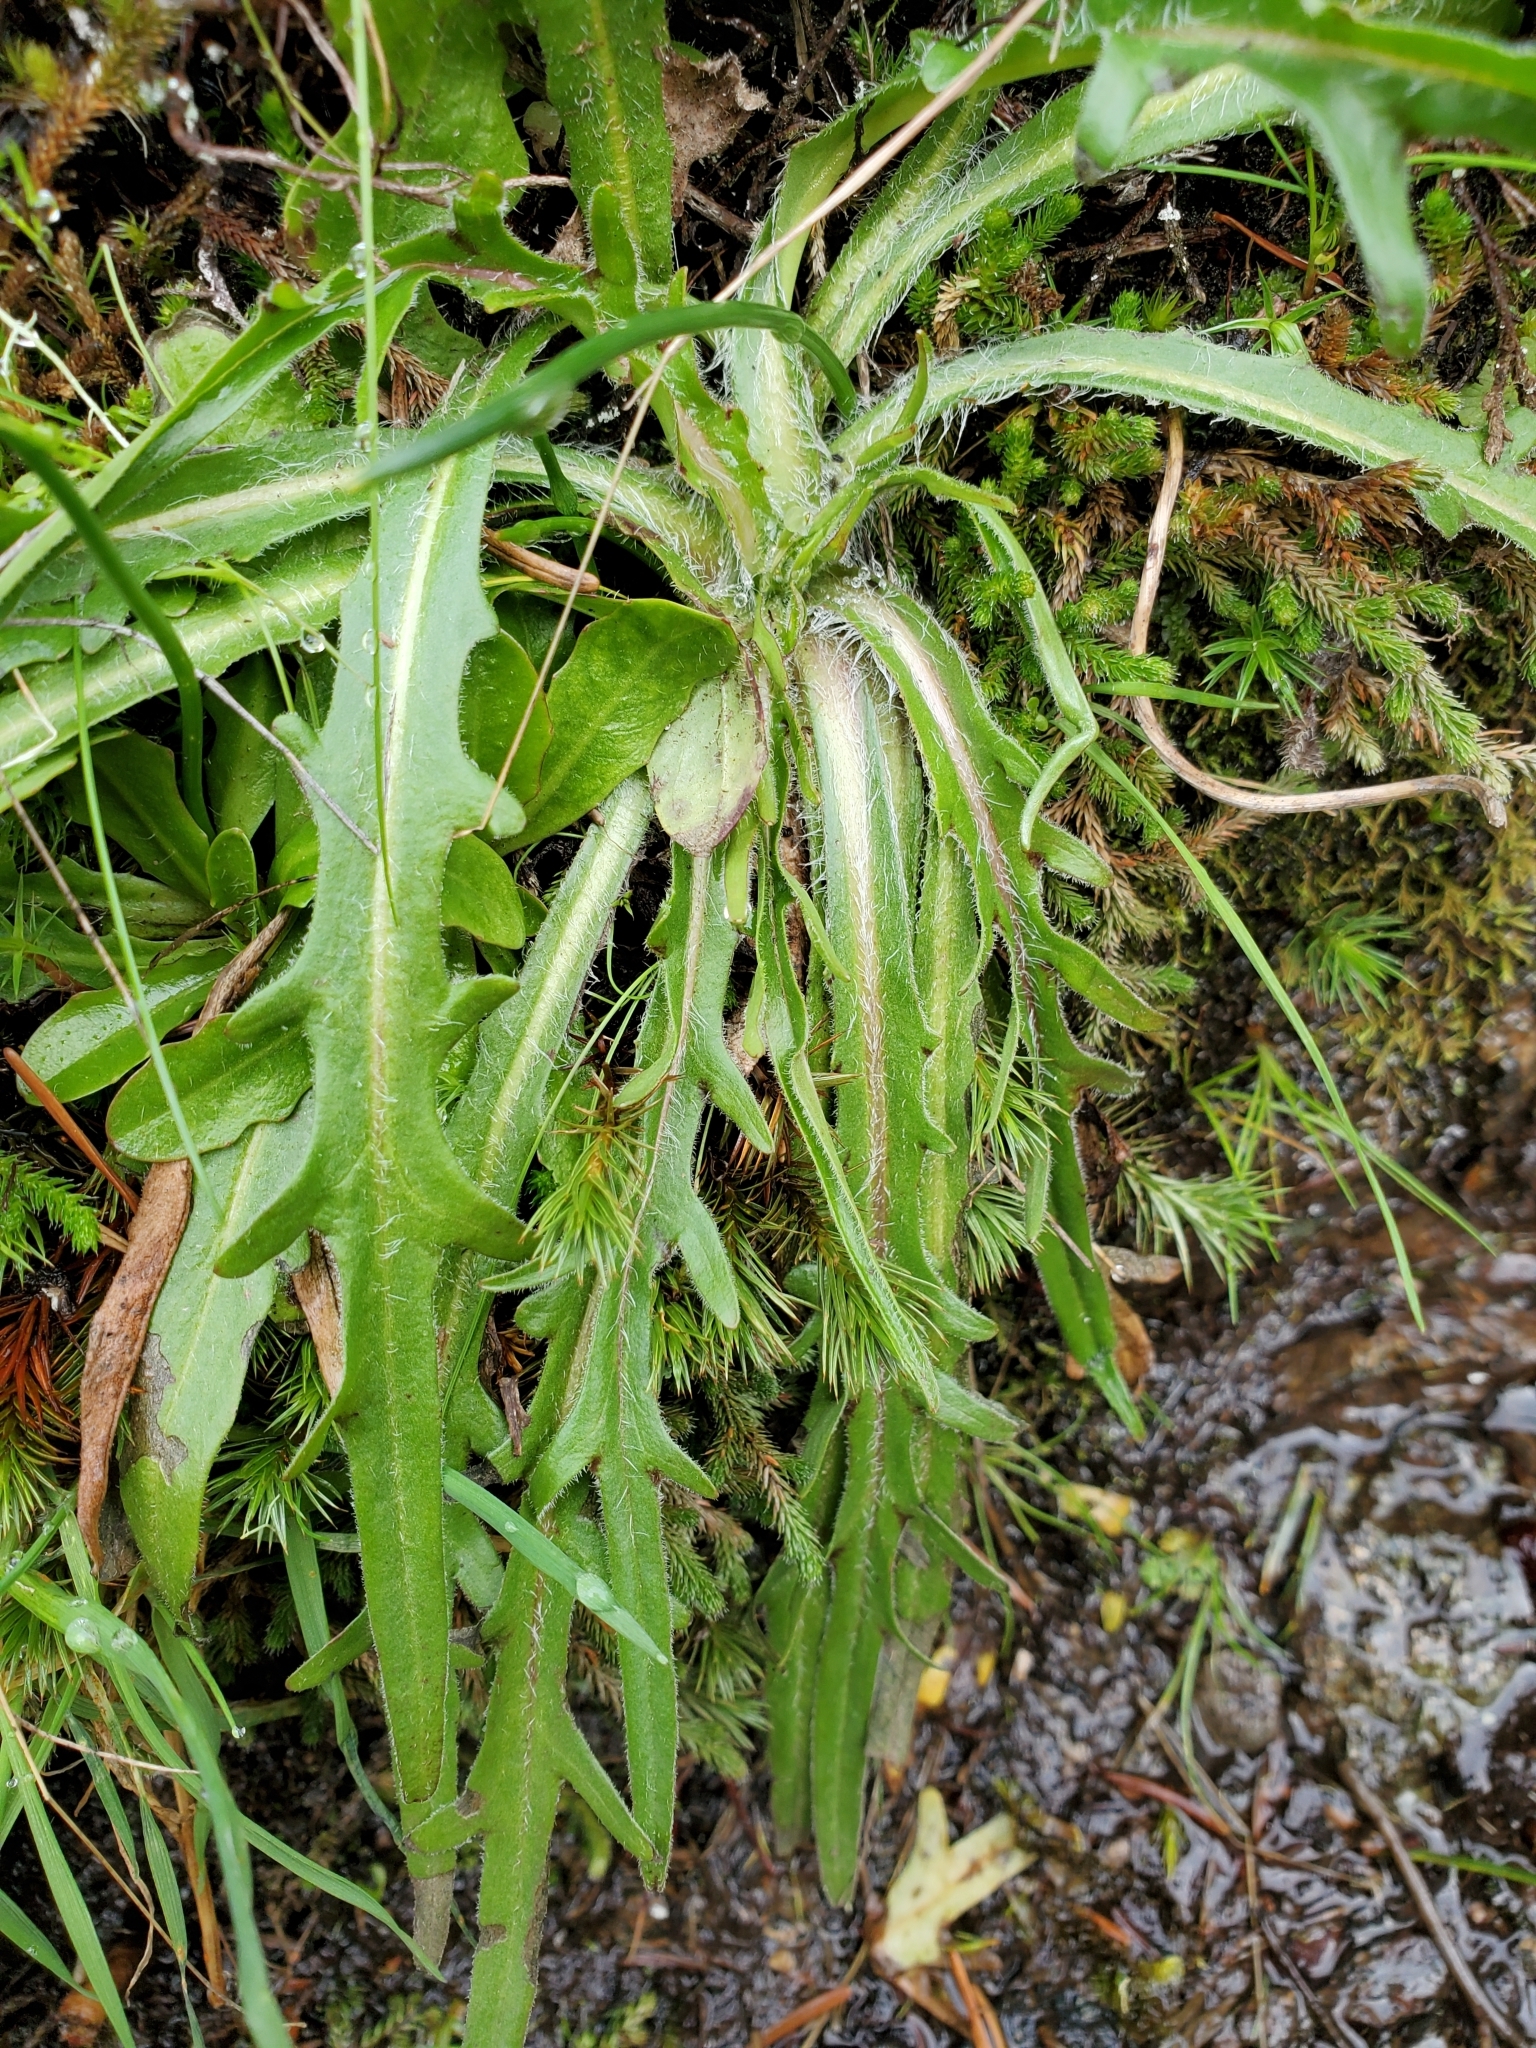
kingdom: Plantae
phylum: Tracheophyta
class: Magnoliopsida
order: Asterales
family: Asteraceae
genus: Agoseris
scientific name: Agoseris grandiflora
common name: Grassland agoseris
